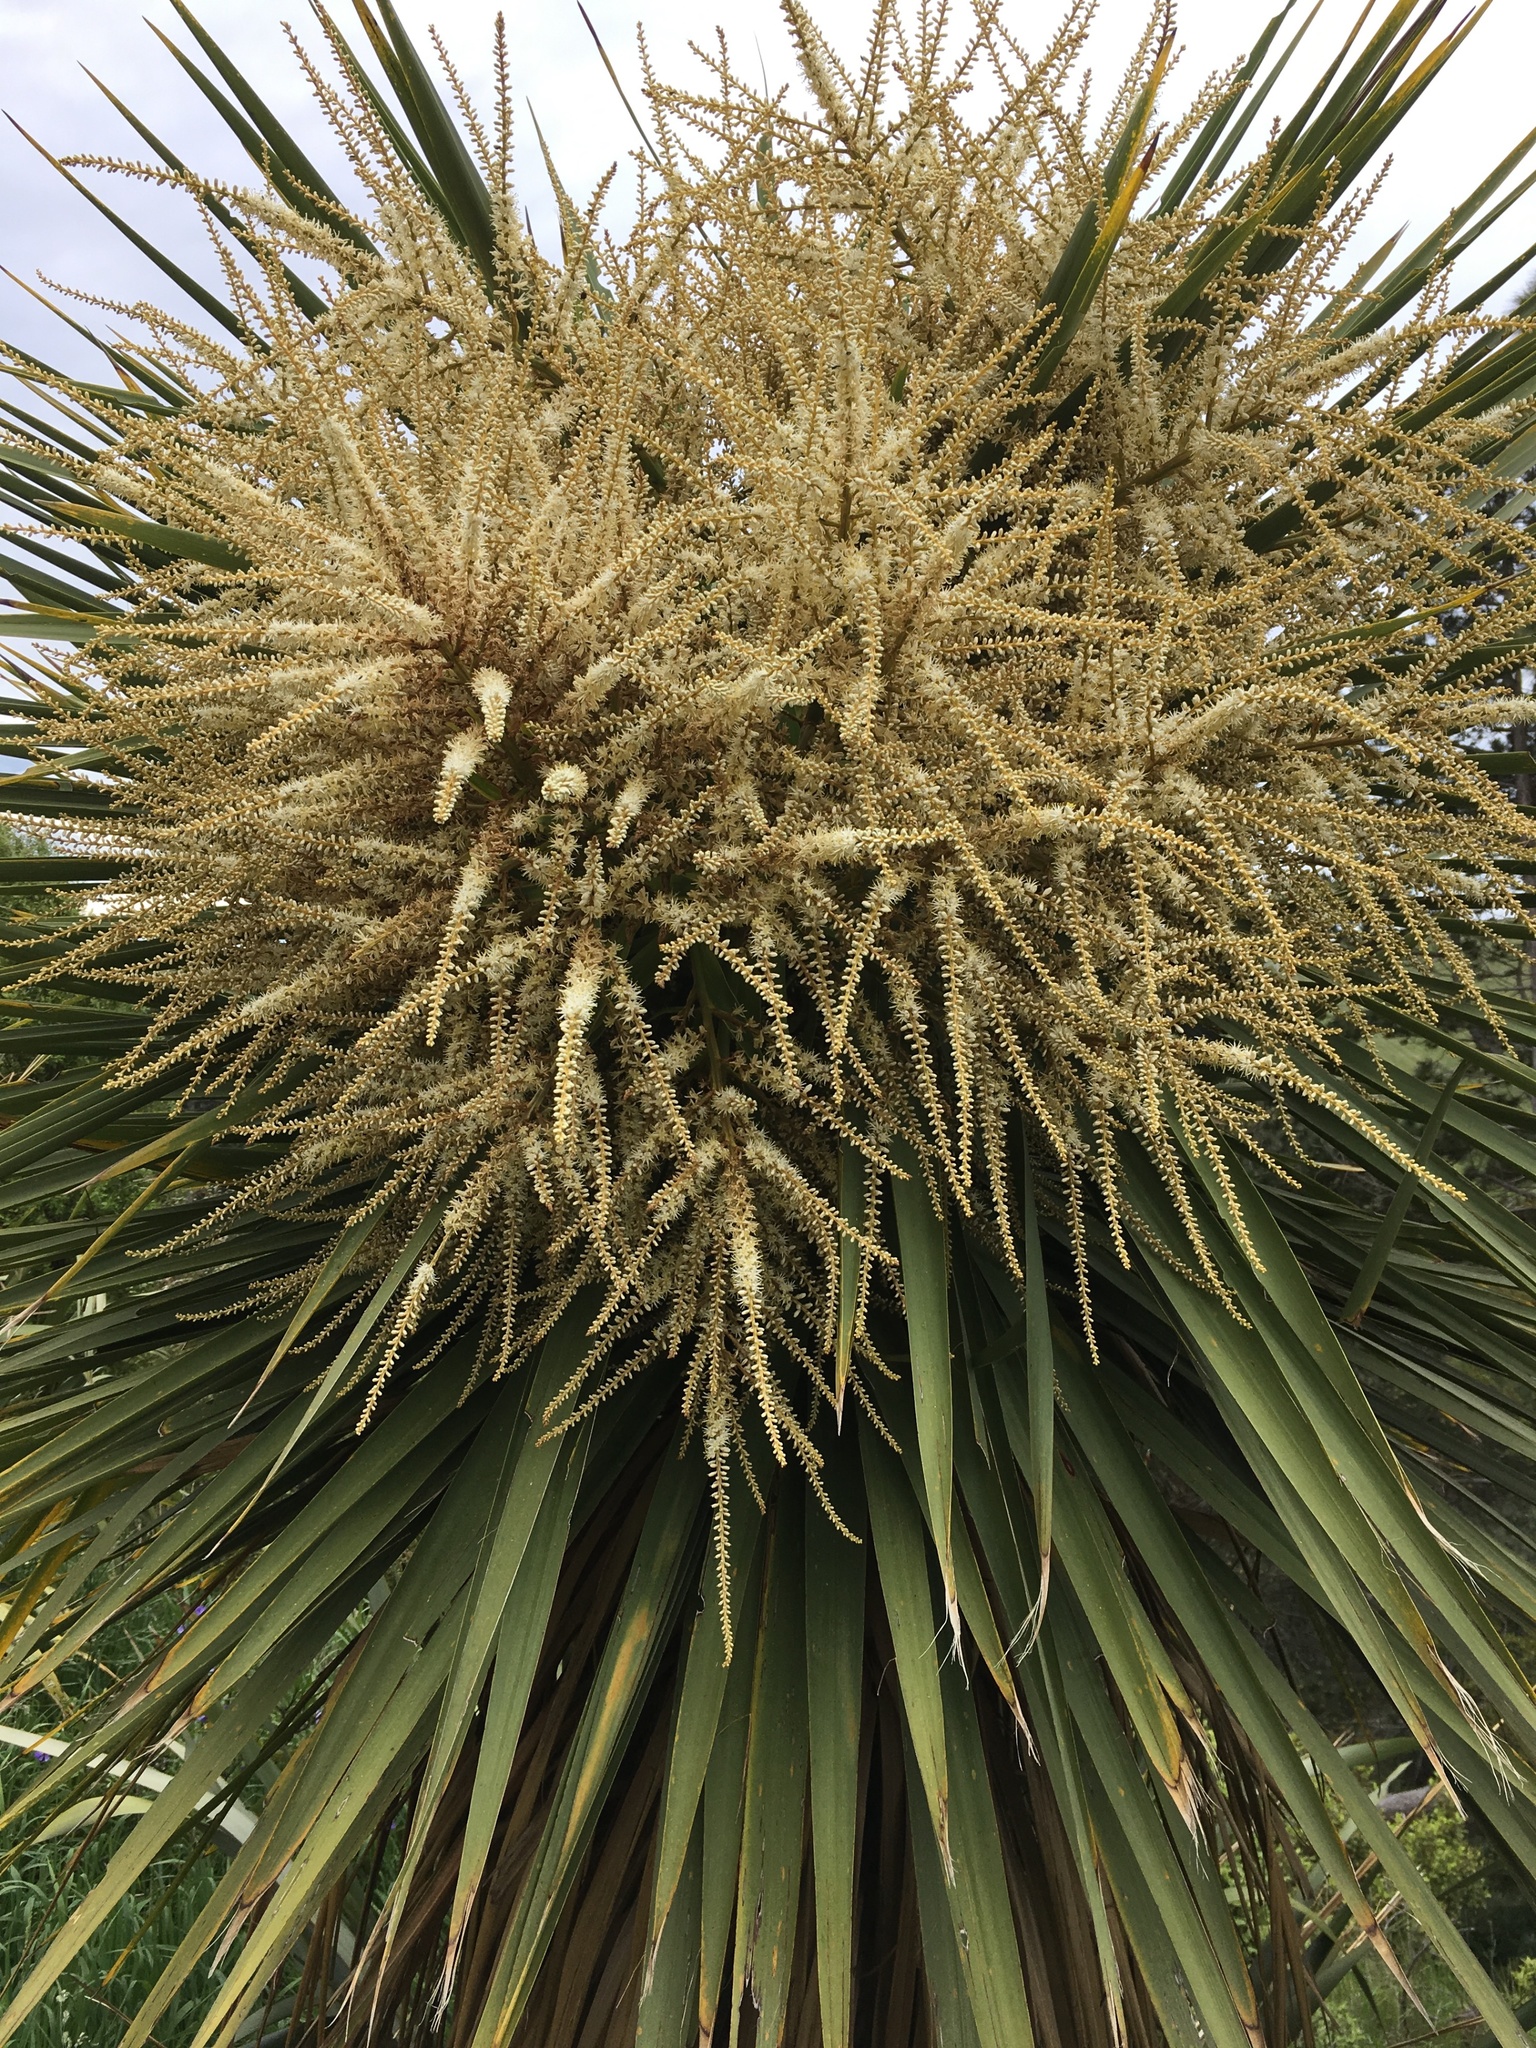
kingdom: Plantae
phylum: Tracheophyta
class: Liliopsida
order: Asparagales
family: Asparagaceae
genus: Cordyline
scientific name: Cordyline australis
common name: Cabbage-palm
